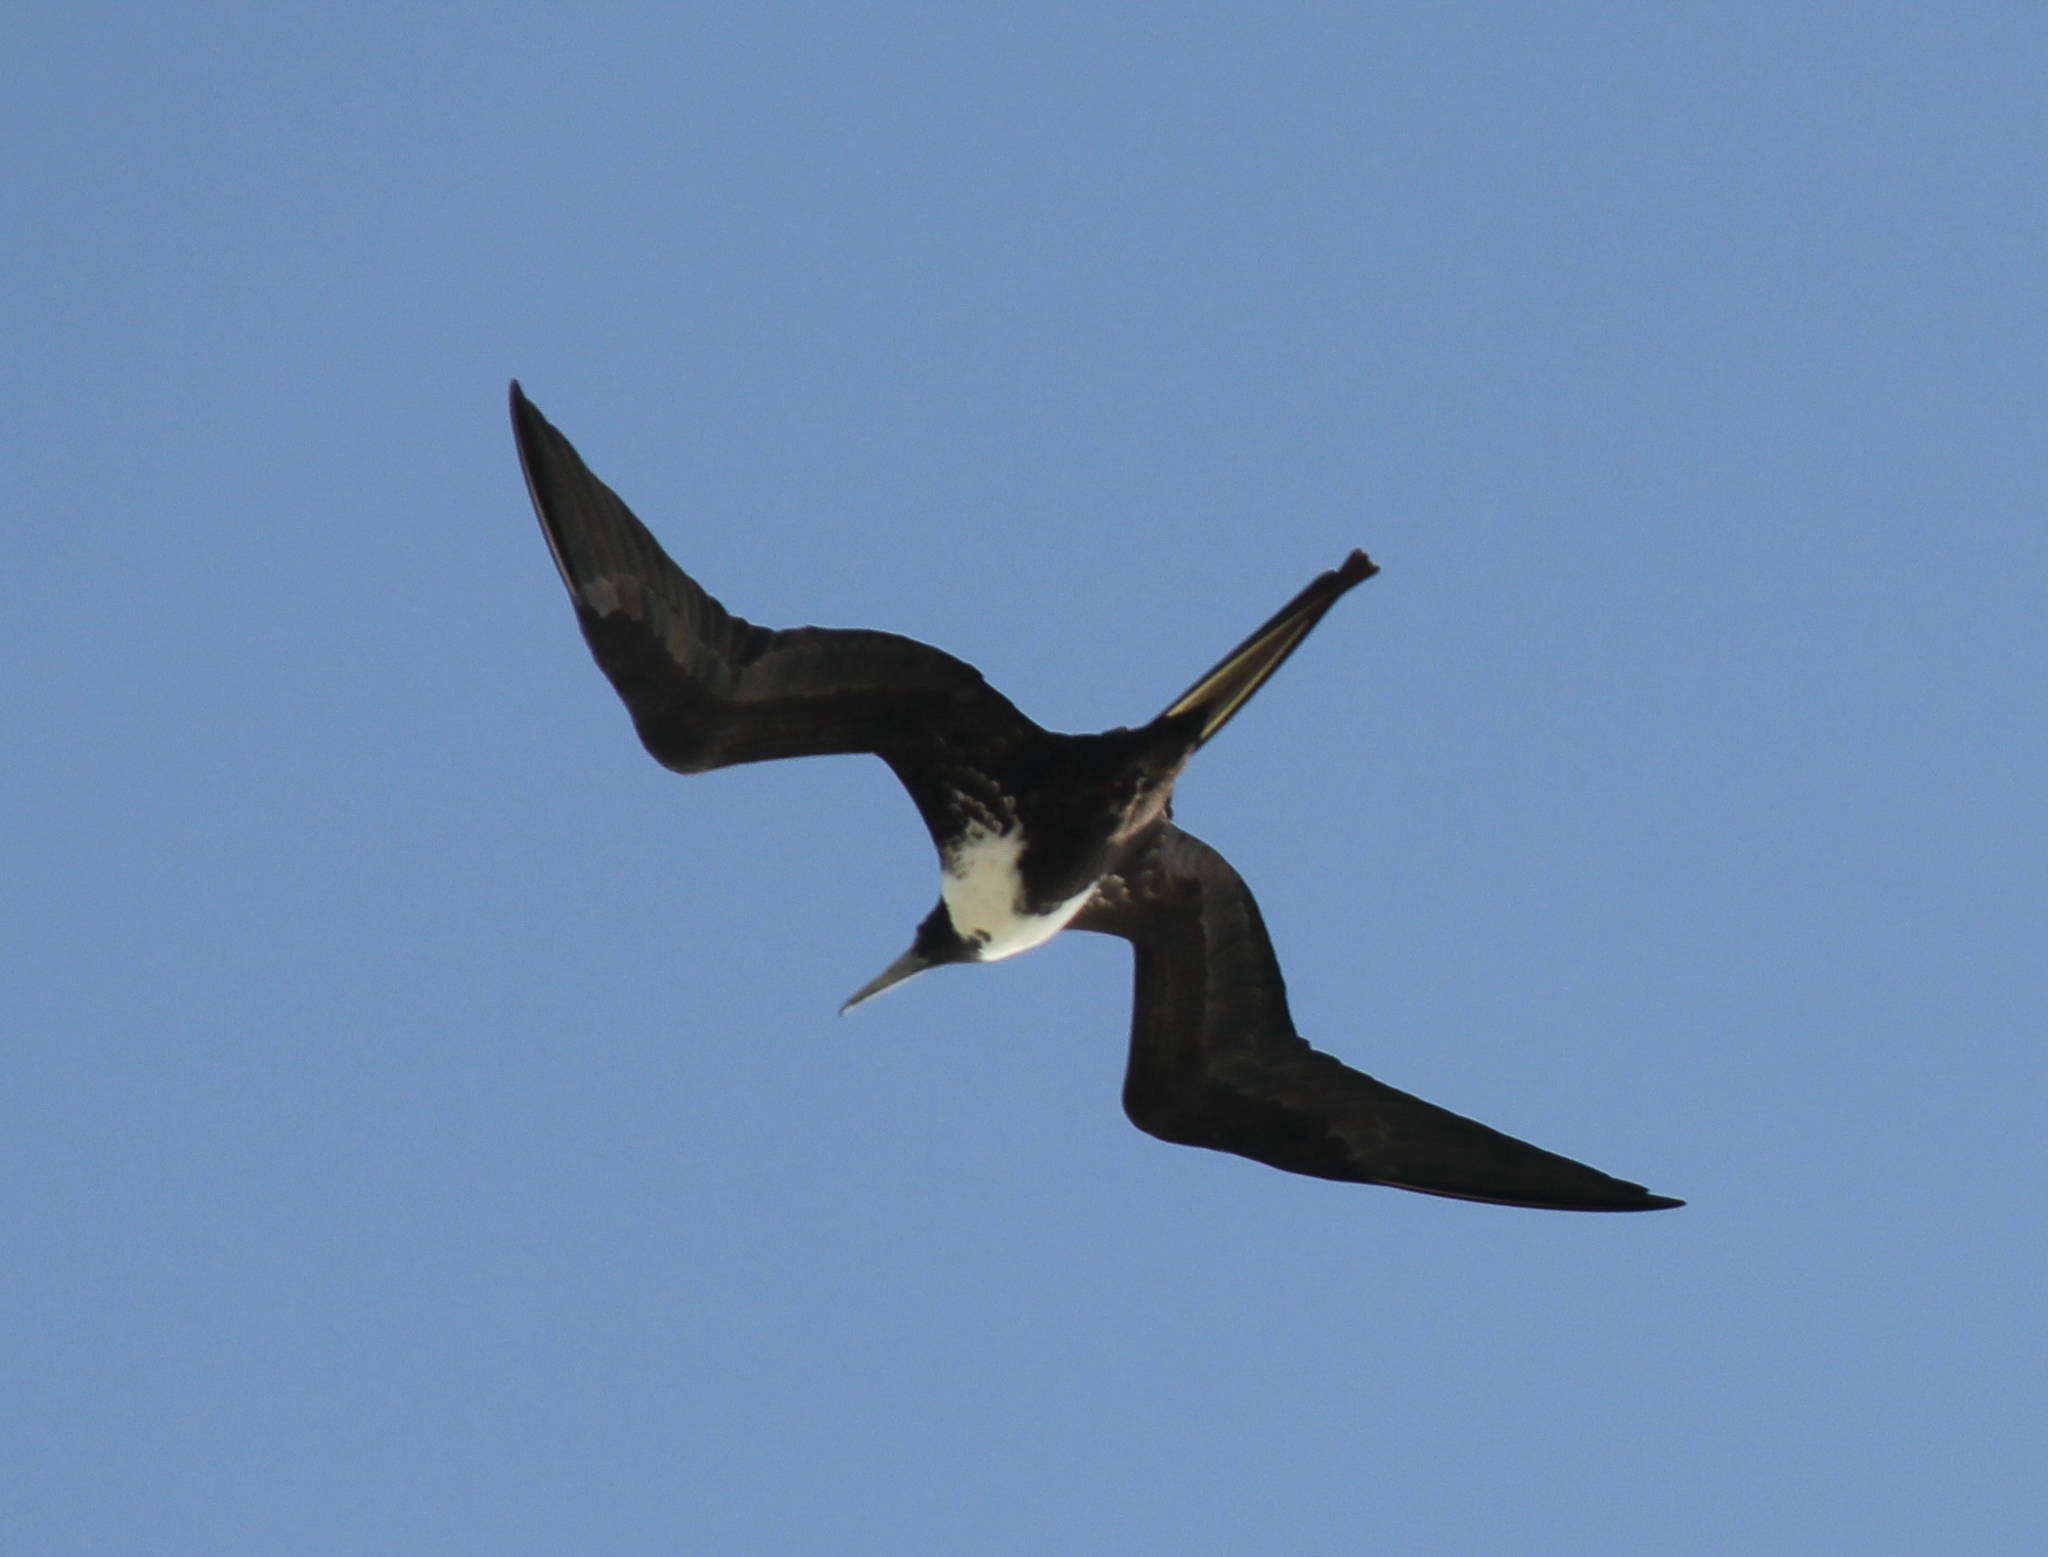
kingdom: Animalia
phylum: Chordata
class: Aves
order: Suliformes
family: Fregatidae
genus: Fregata
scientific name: Fregata magnificens
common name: Magnificent frigatebird
